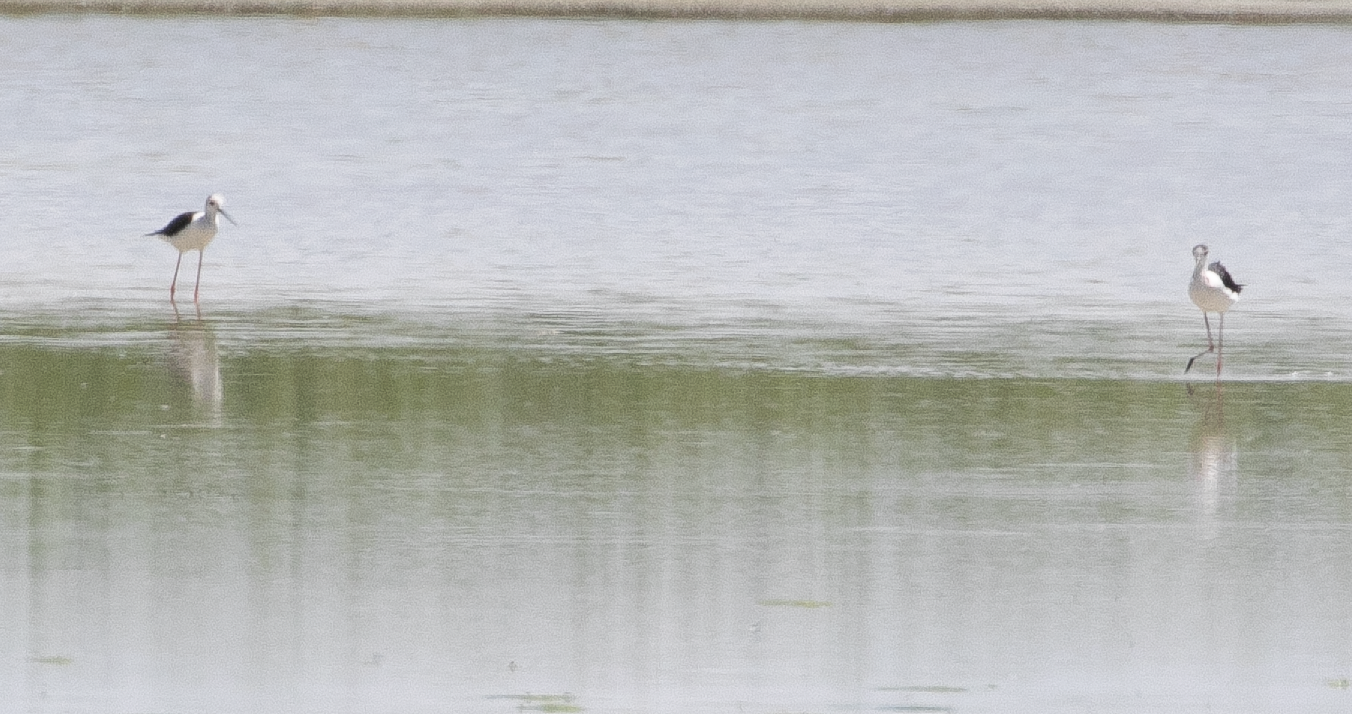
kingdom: Animalia
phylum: Chordata
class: Aves
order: Charadriiformes
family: Recurvirostridae
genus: Himantopus
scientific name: Himantopus himantopus
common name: Black-winged stilt
